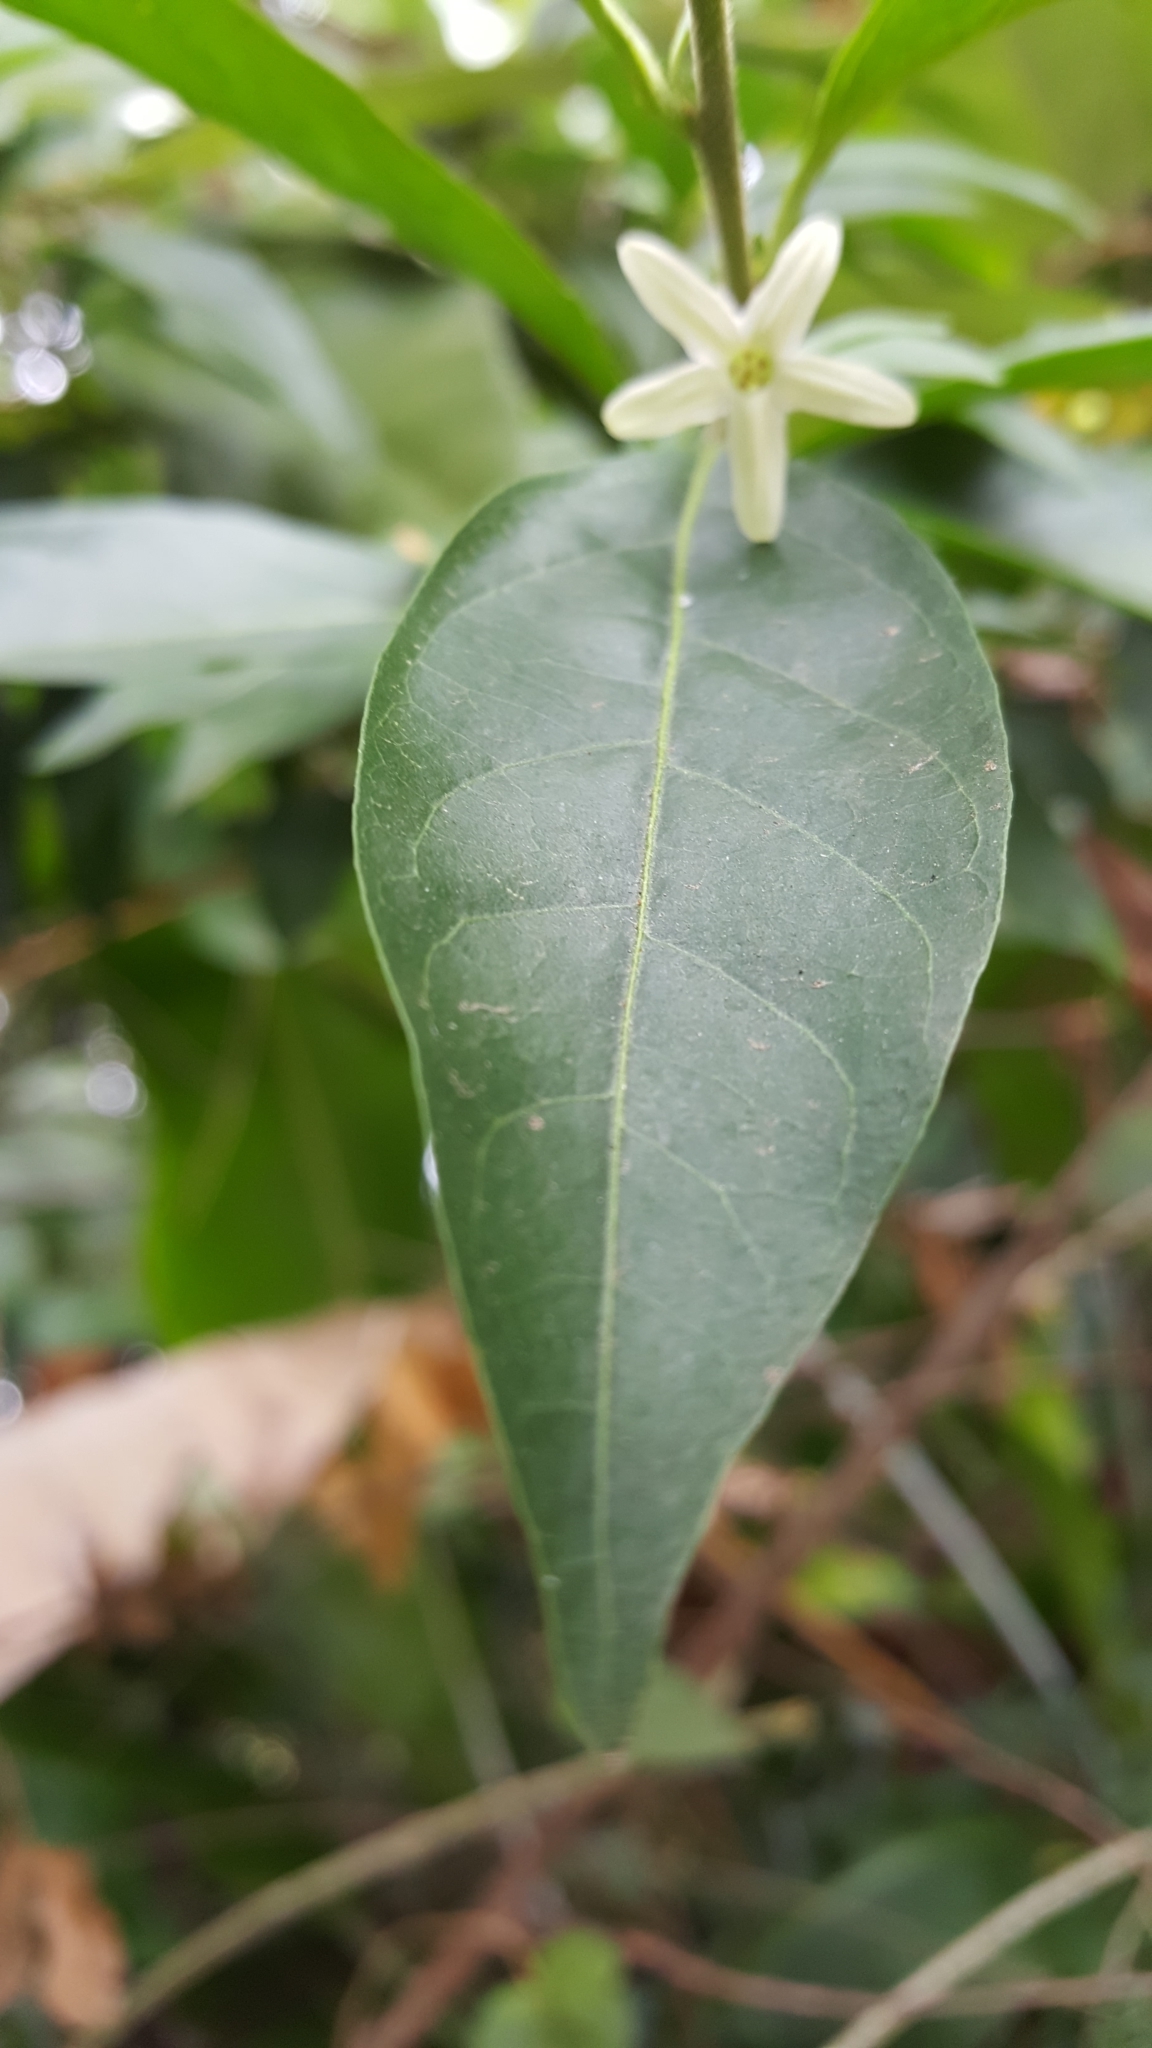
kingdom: Plantae
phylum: Tracheophyta
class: Magnoliopsida
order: Solanales
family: Solanaceae
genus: Cestrum
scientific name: Cestrum nocturnum
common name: Night jessamine
